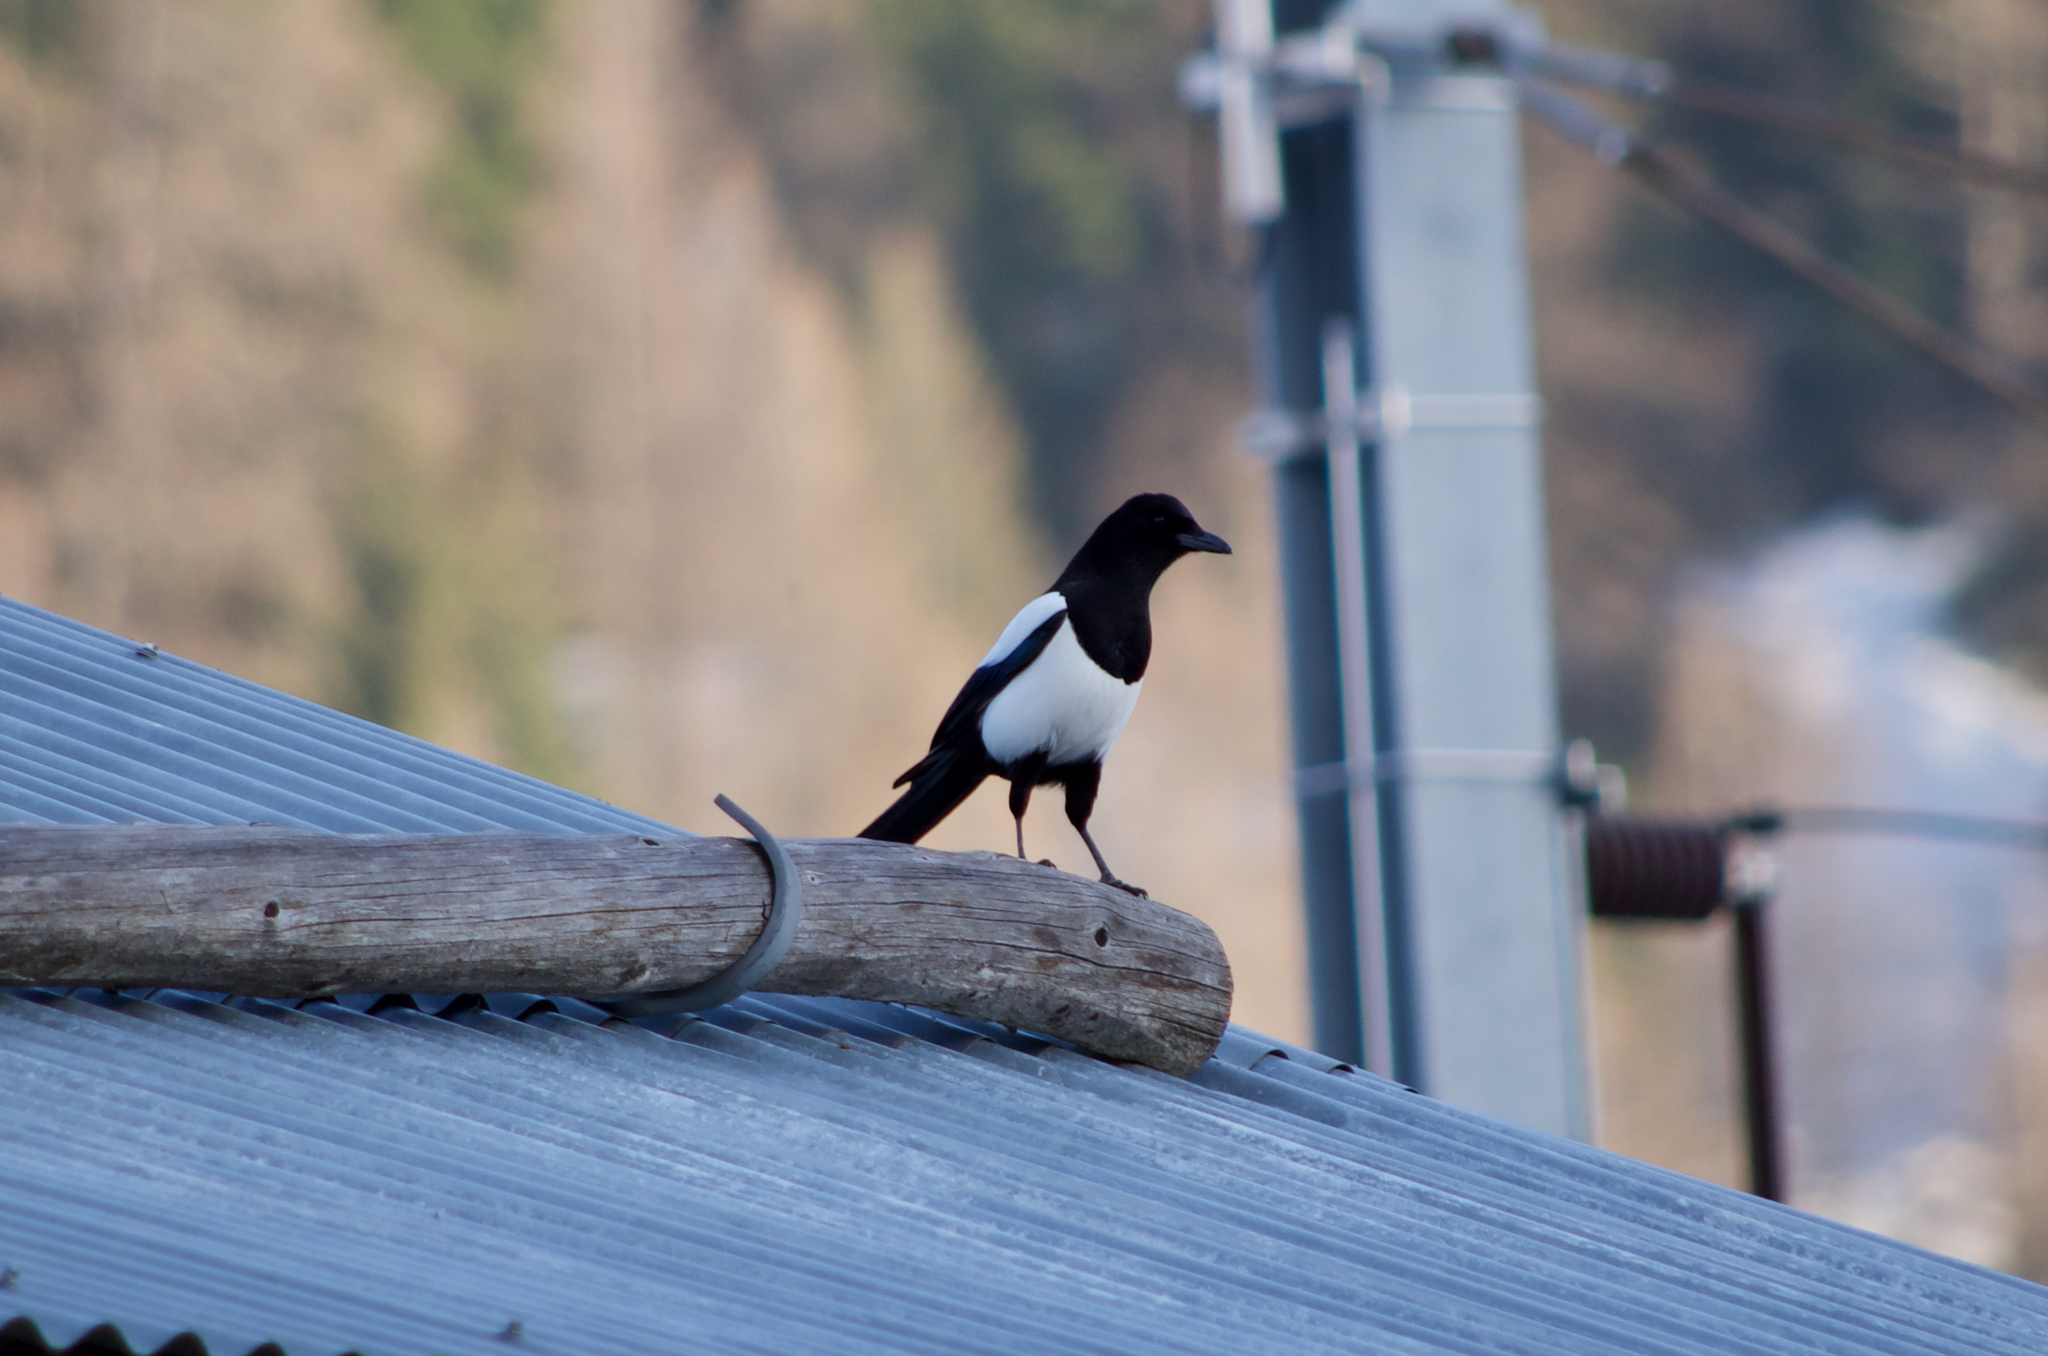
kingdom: Animalia
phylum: Chordata
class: Aves
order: Passeriformes
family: Corvidae
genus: Pica
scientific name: Pica pica
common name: Eurasian magpie
